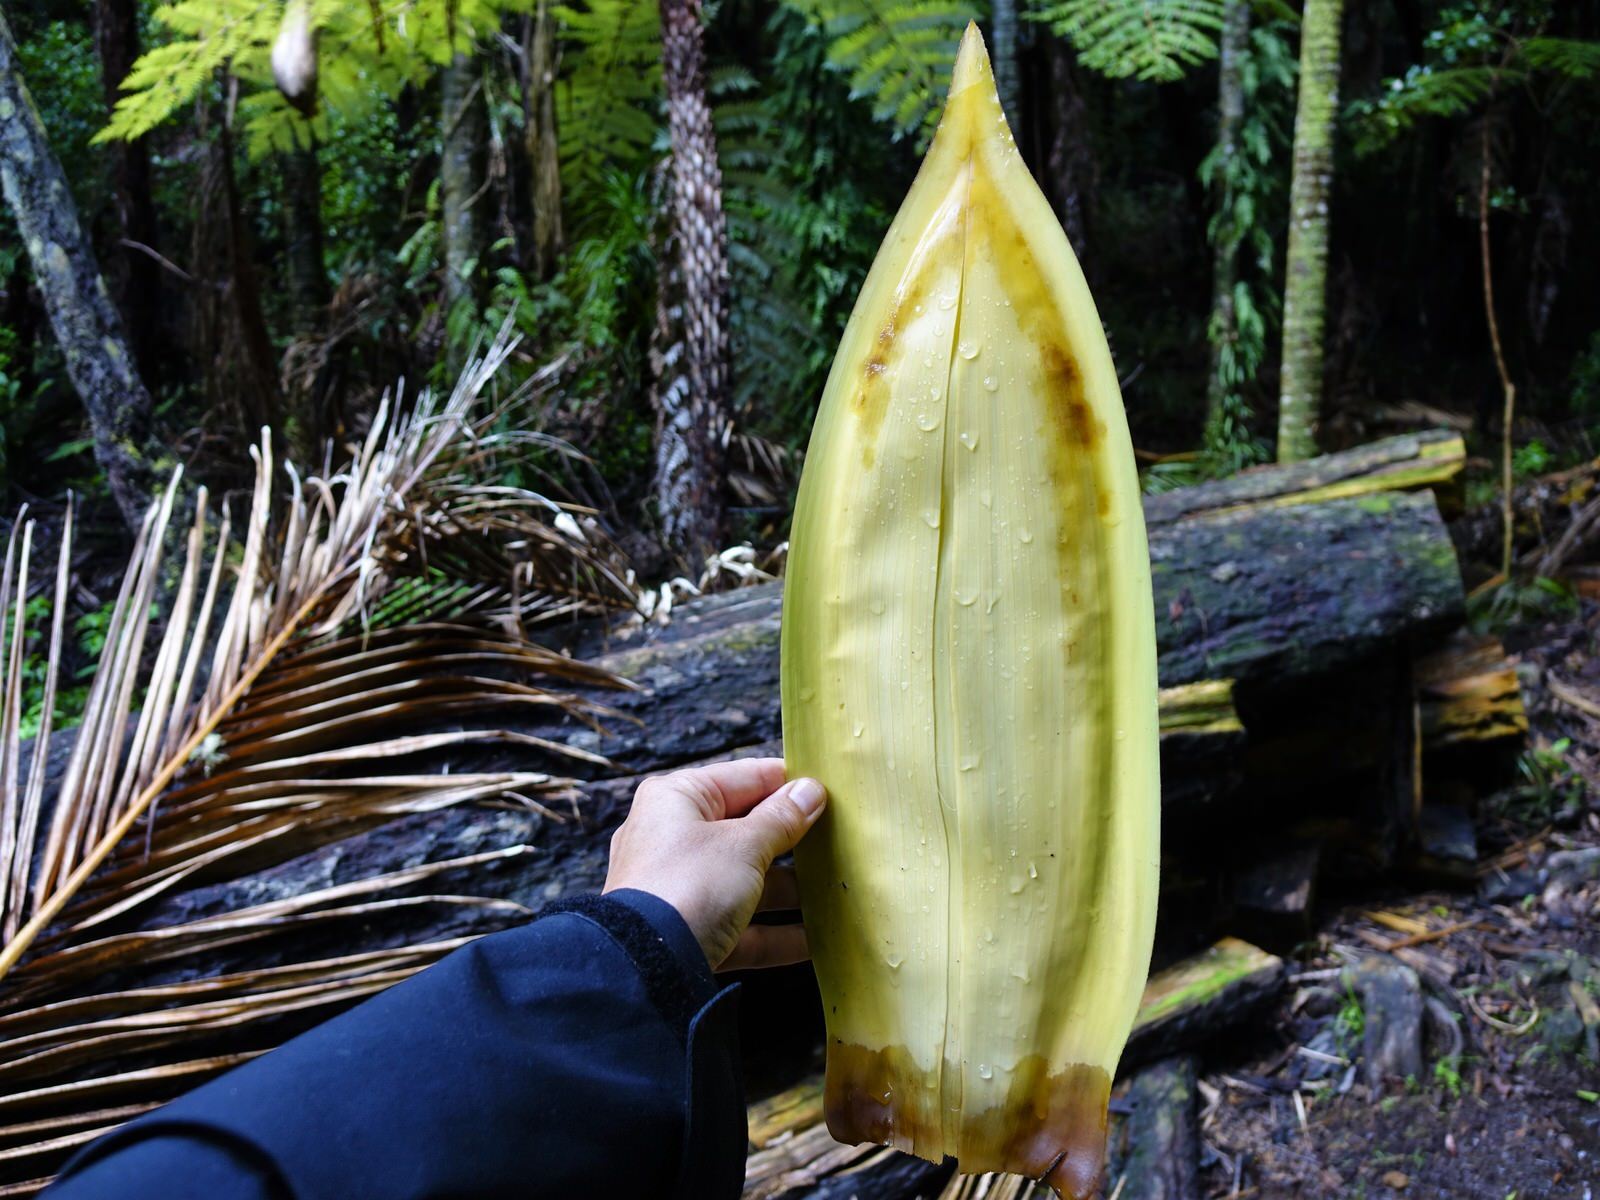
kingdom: Plantae
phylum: Tracheophyta
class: Liliopsida
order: Arecales
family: Arecaceae
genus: Rhopalostylis
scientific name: Rhopalostylis sapida
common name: Feather-duster palm
